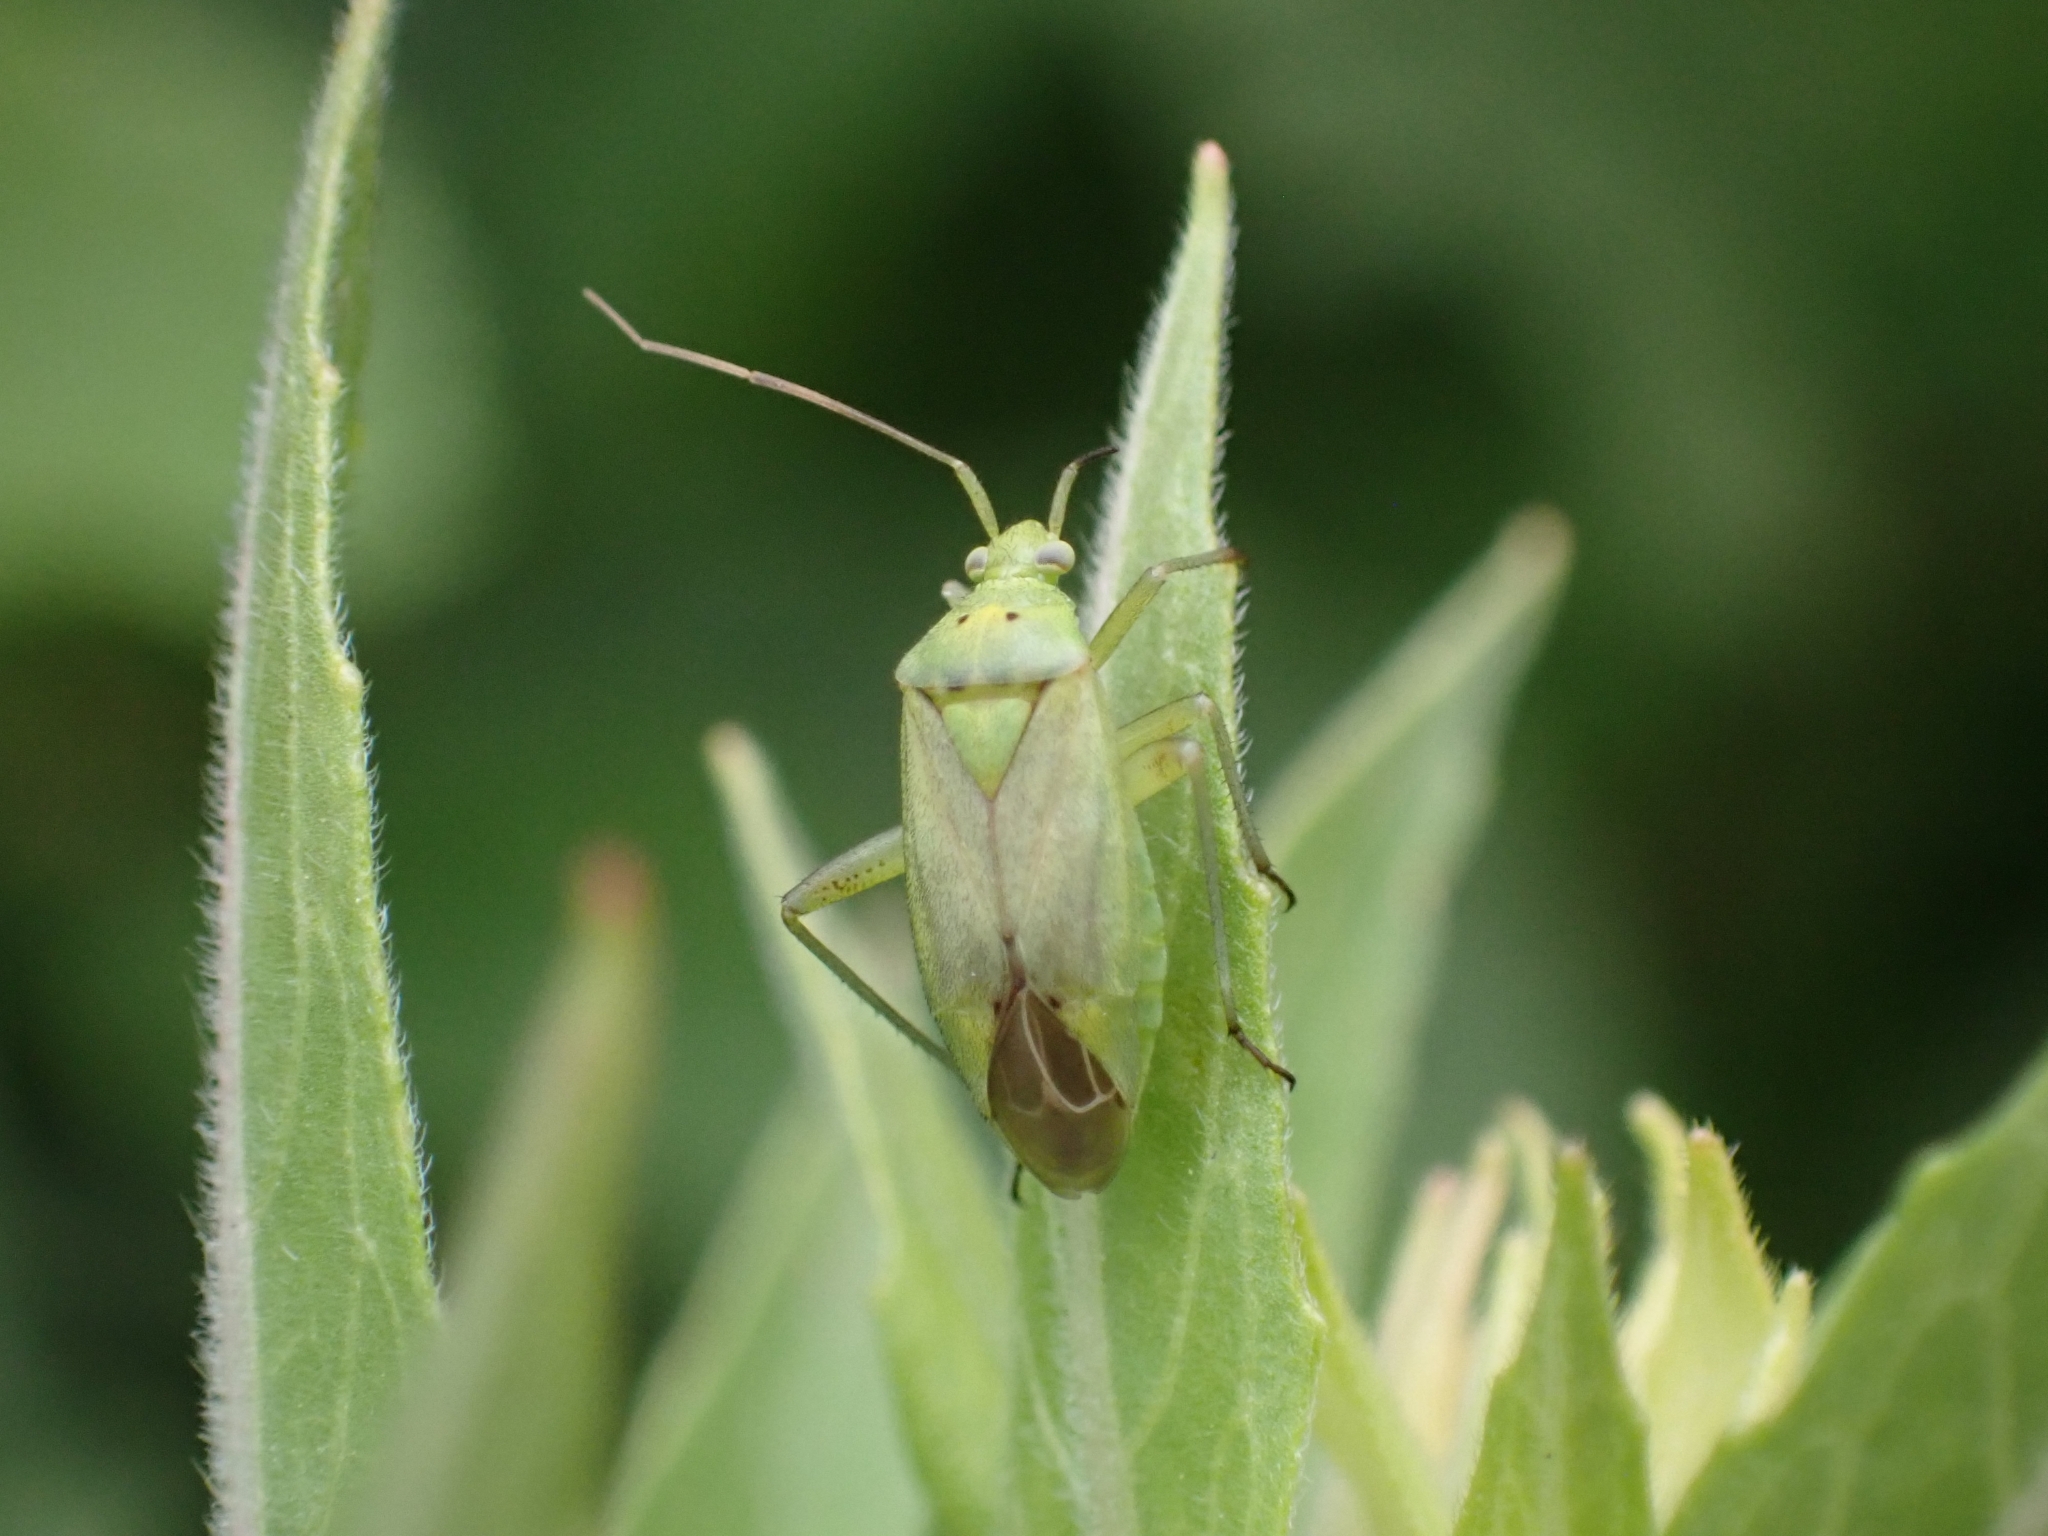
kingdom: Animalia
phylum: Arthropoda
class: Insecta
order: Hemiptera
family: Miridae
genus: Closterotomus
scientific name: Closterotomus norvegicus
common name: Plant bug
